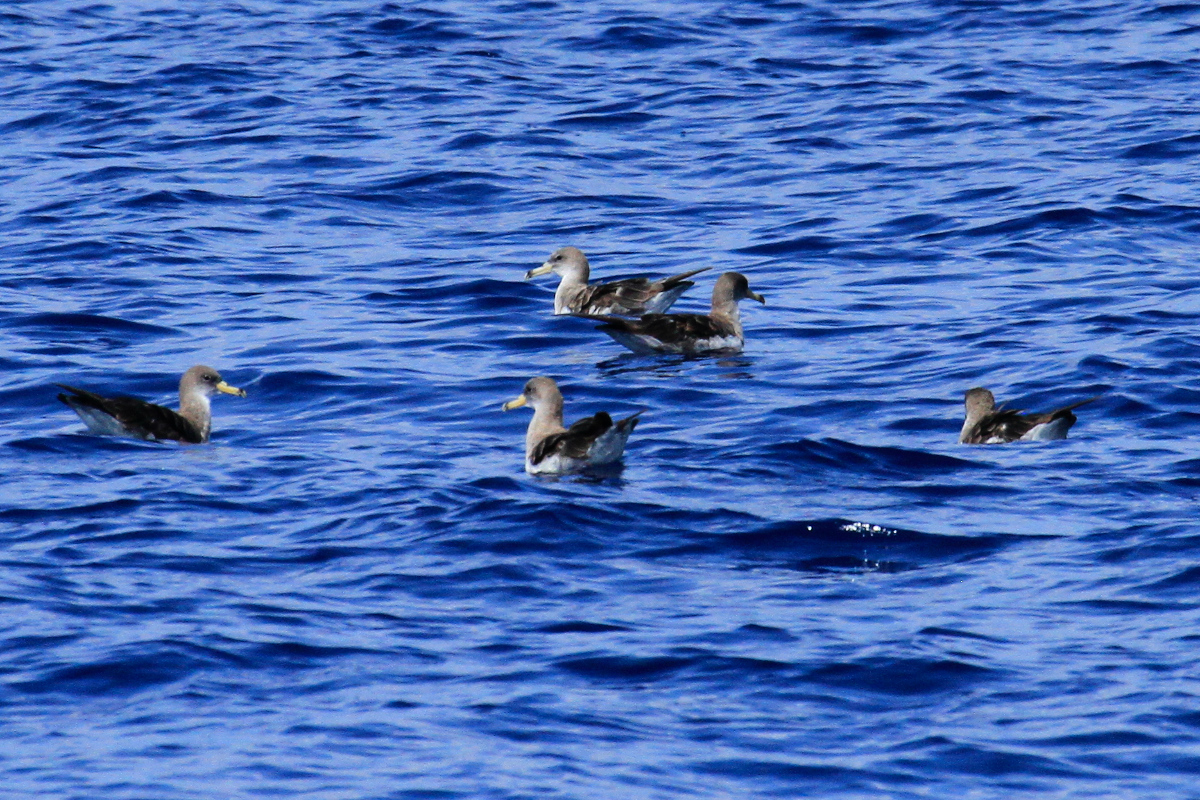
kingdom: Animalia
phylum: Chordata
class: Aves
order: Procellariiformes
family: Procellariidae
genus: Calonectris
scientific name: Calonectris diomedea
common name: Cory's shearwater
